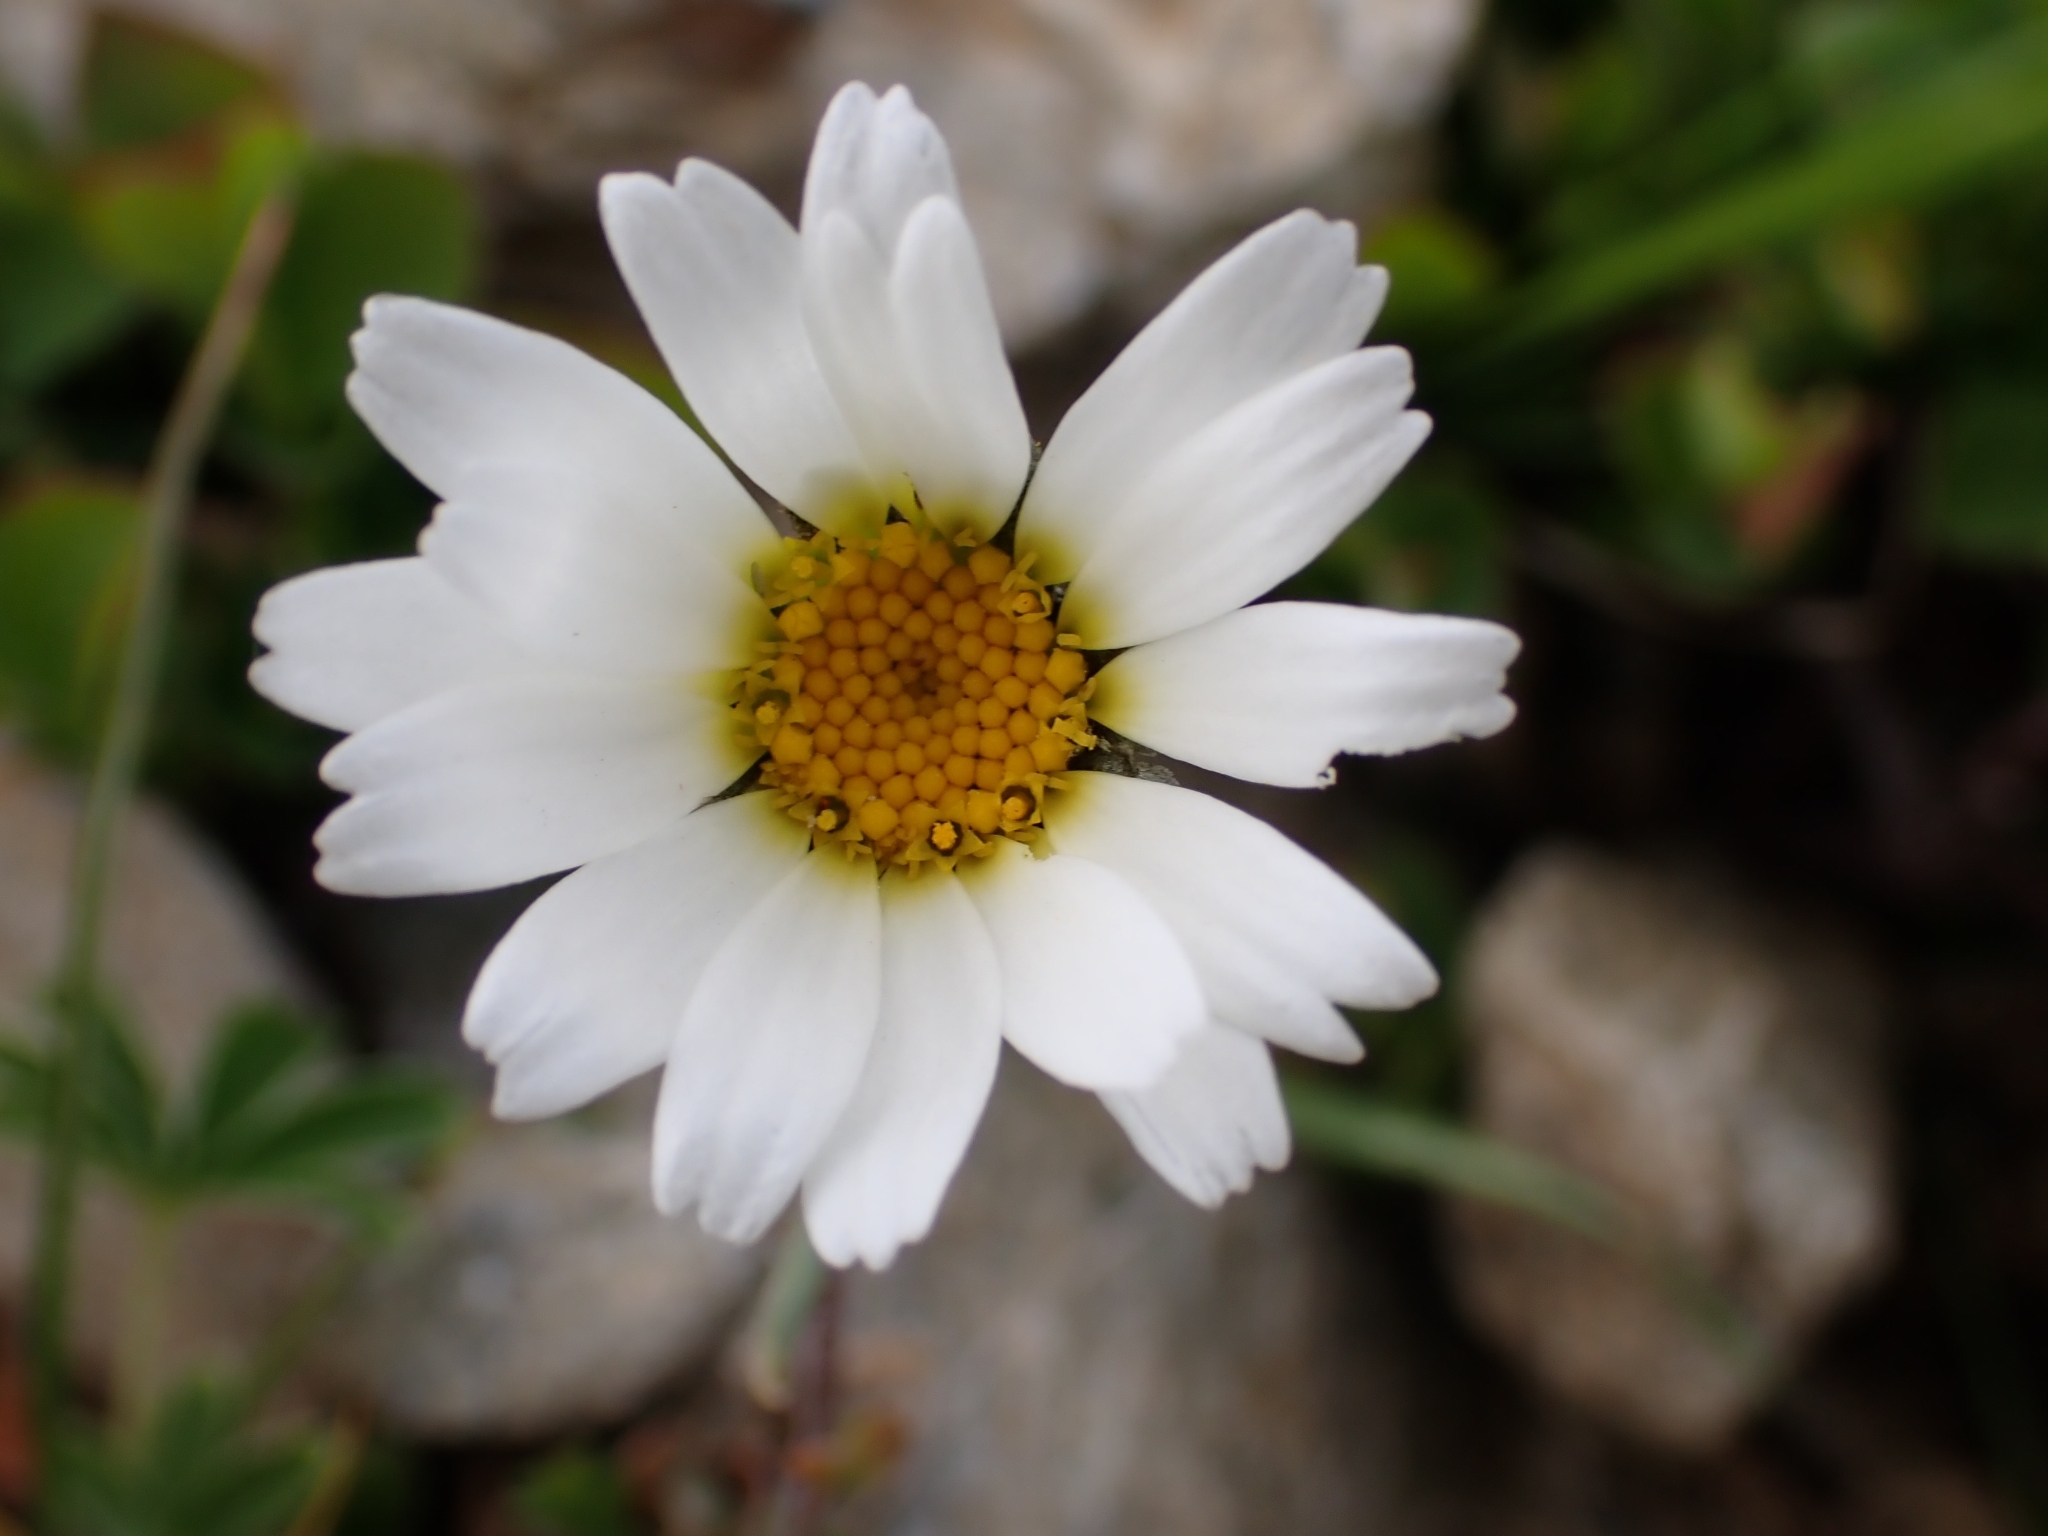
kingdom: Plantae
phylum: Tracheophyta
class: Magnoliopsida
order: Asterales
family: Asteraceae
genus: Leucanthemopsis
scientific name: Leucanthemopsis alpina
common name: Alpine moon daisy
